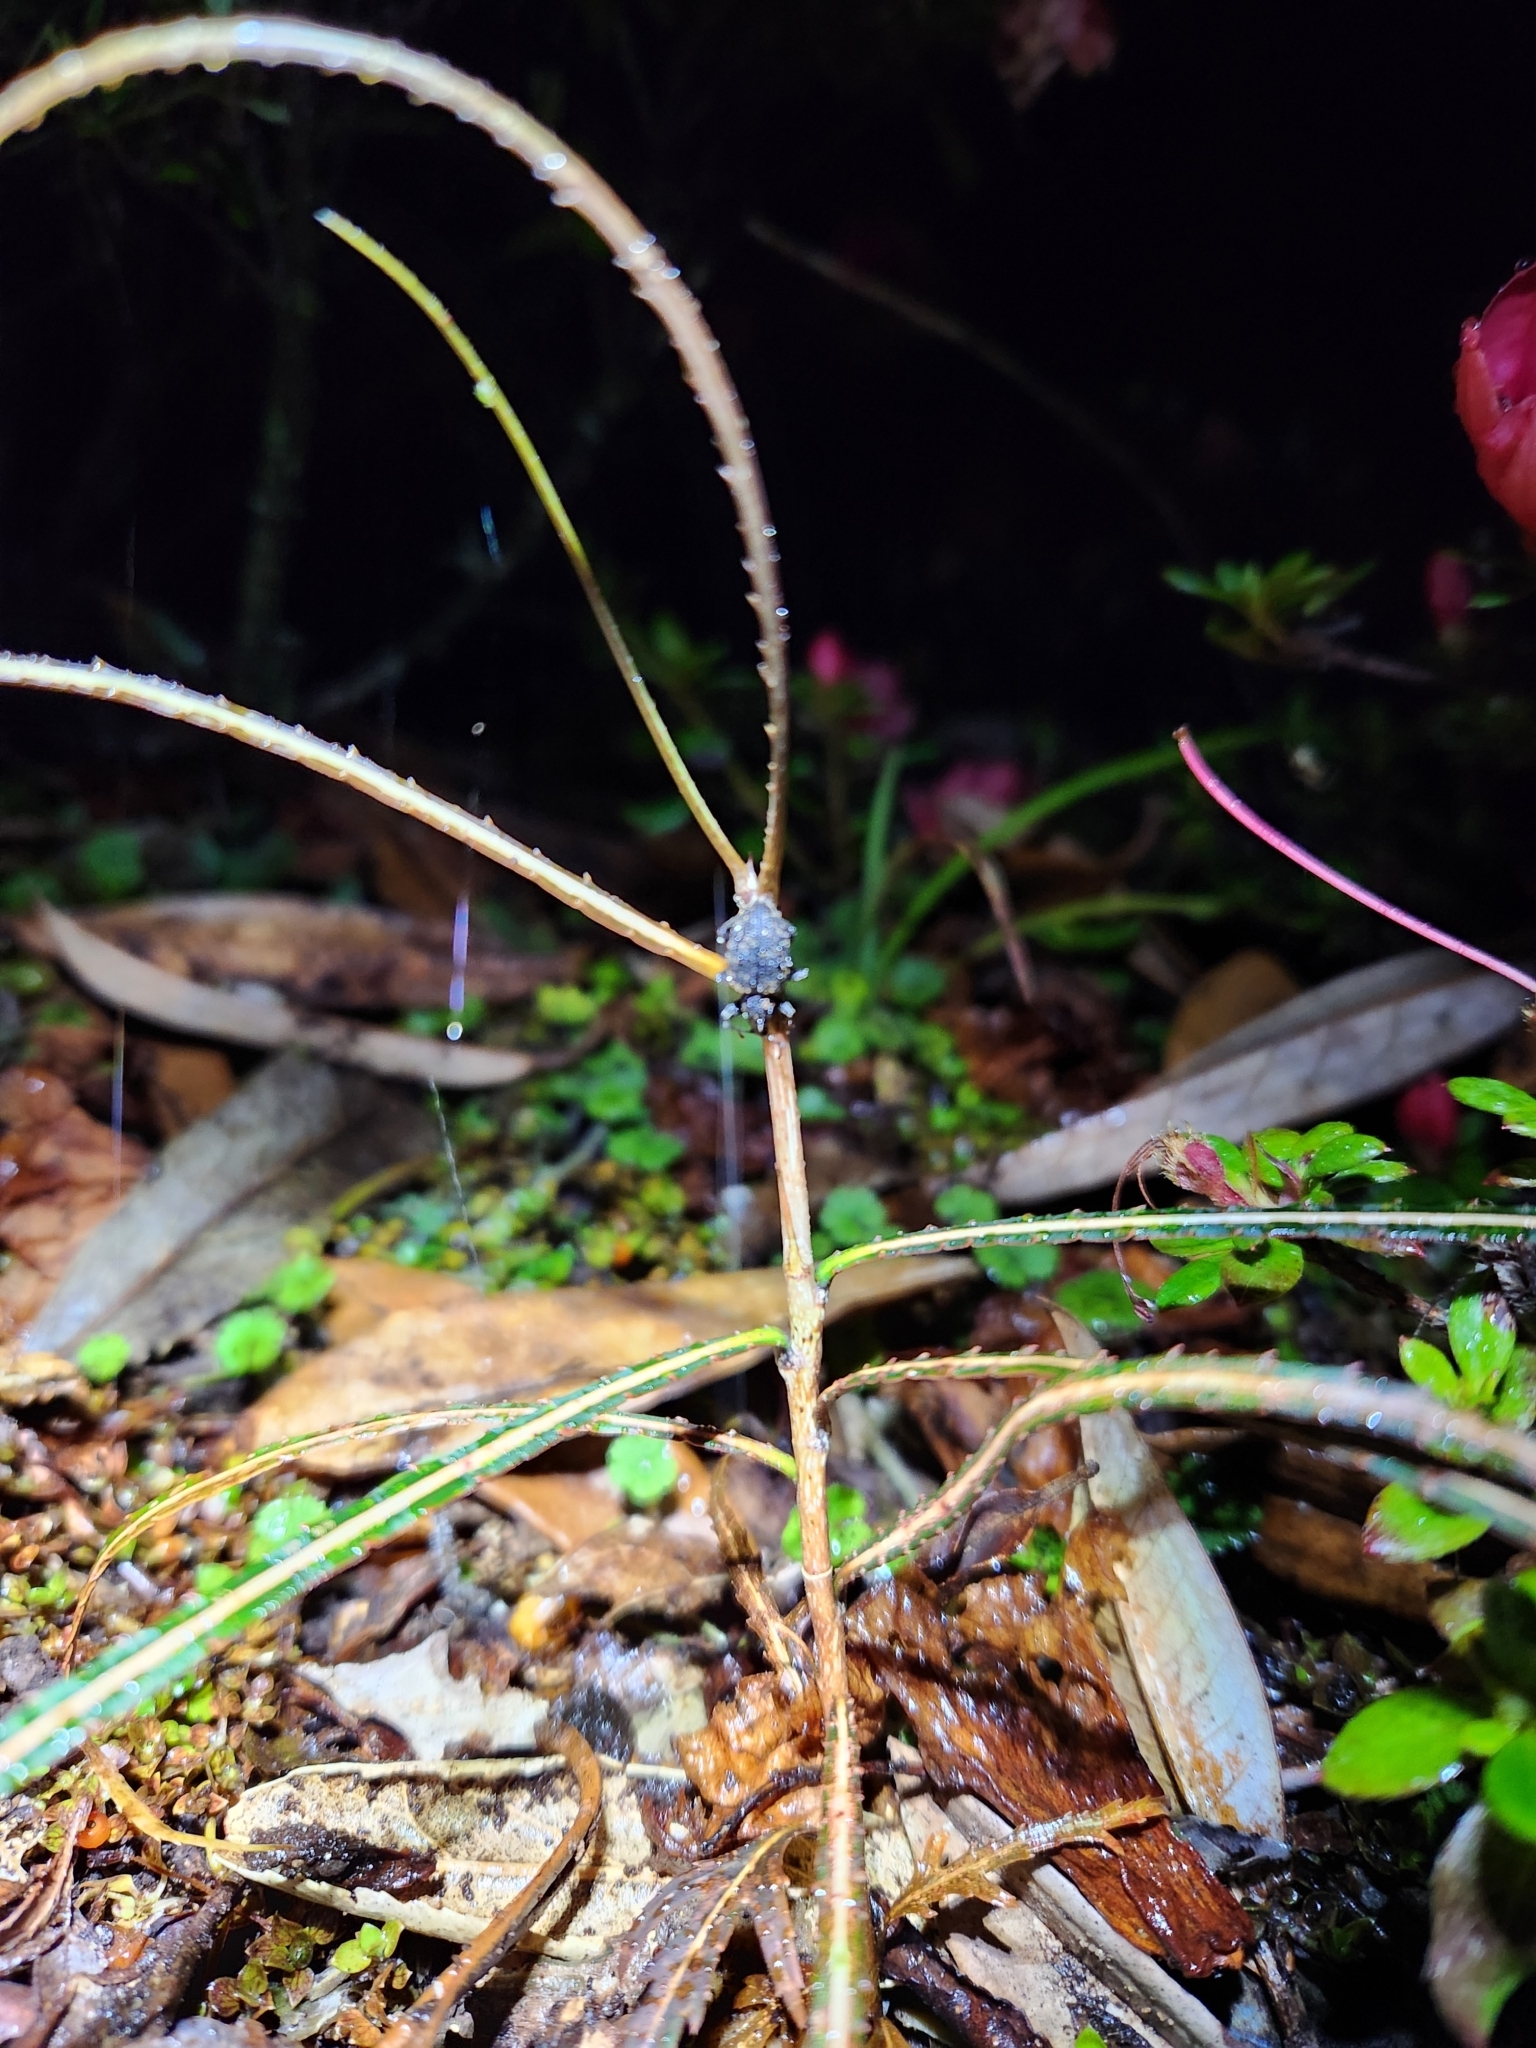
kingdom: Animalia
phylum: Arthropoda
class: Insecta
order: Coleoptera
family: Curculionidae
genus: Otiorhynchus
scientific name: Otiorhynchus sulcatus
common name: Black vine weevil
